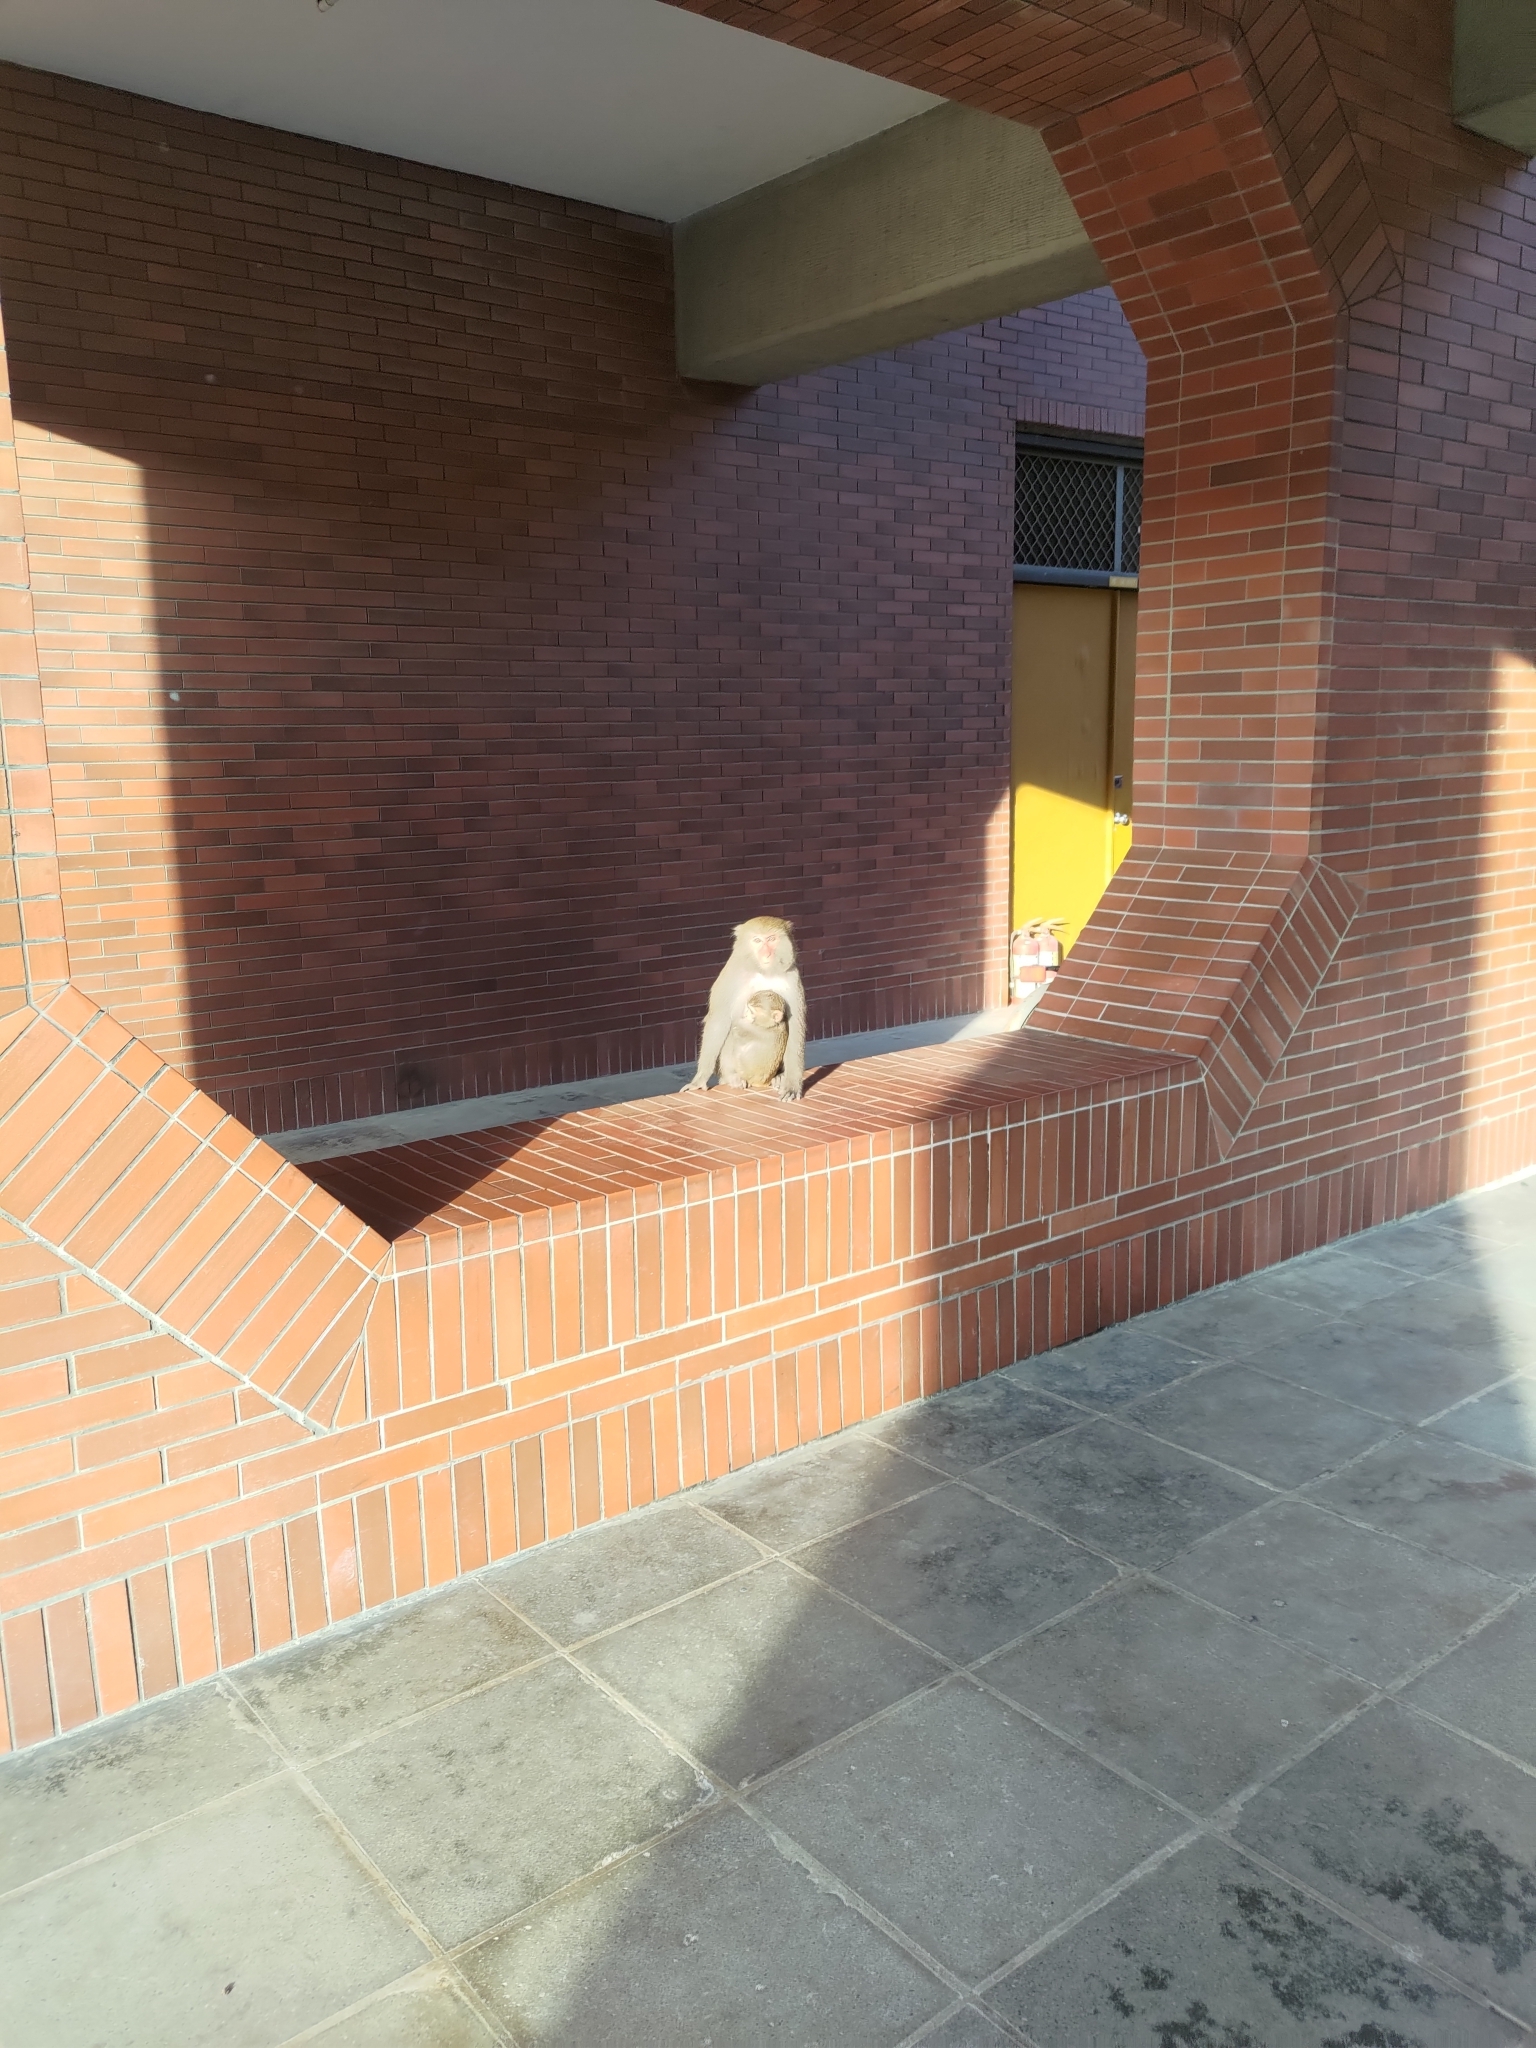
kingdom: Animalia
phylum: Chordata
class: Mammalia
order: Primates
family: Cercopithecidae
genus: Macaca
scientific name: Macaca cyclopis
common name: Formosan rock macaque
